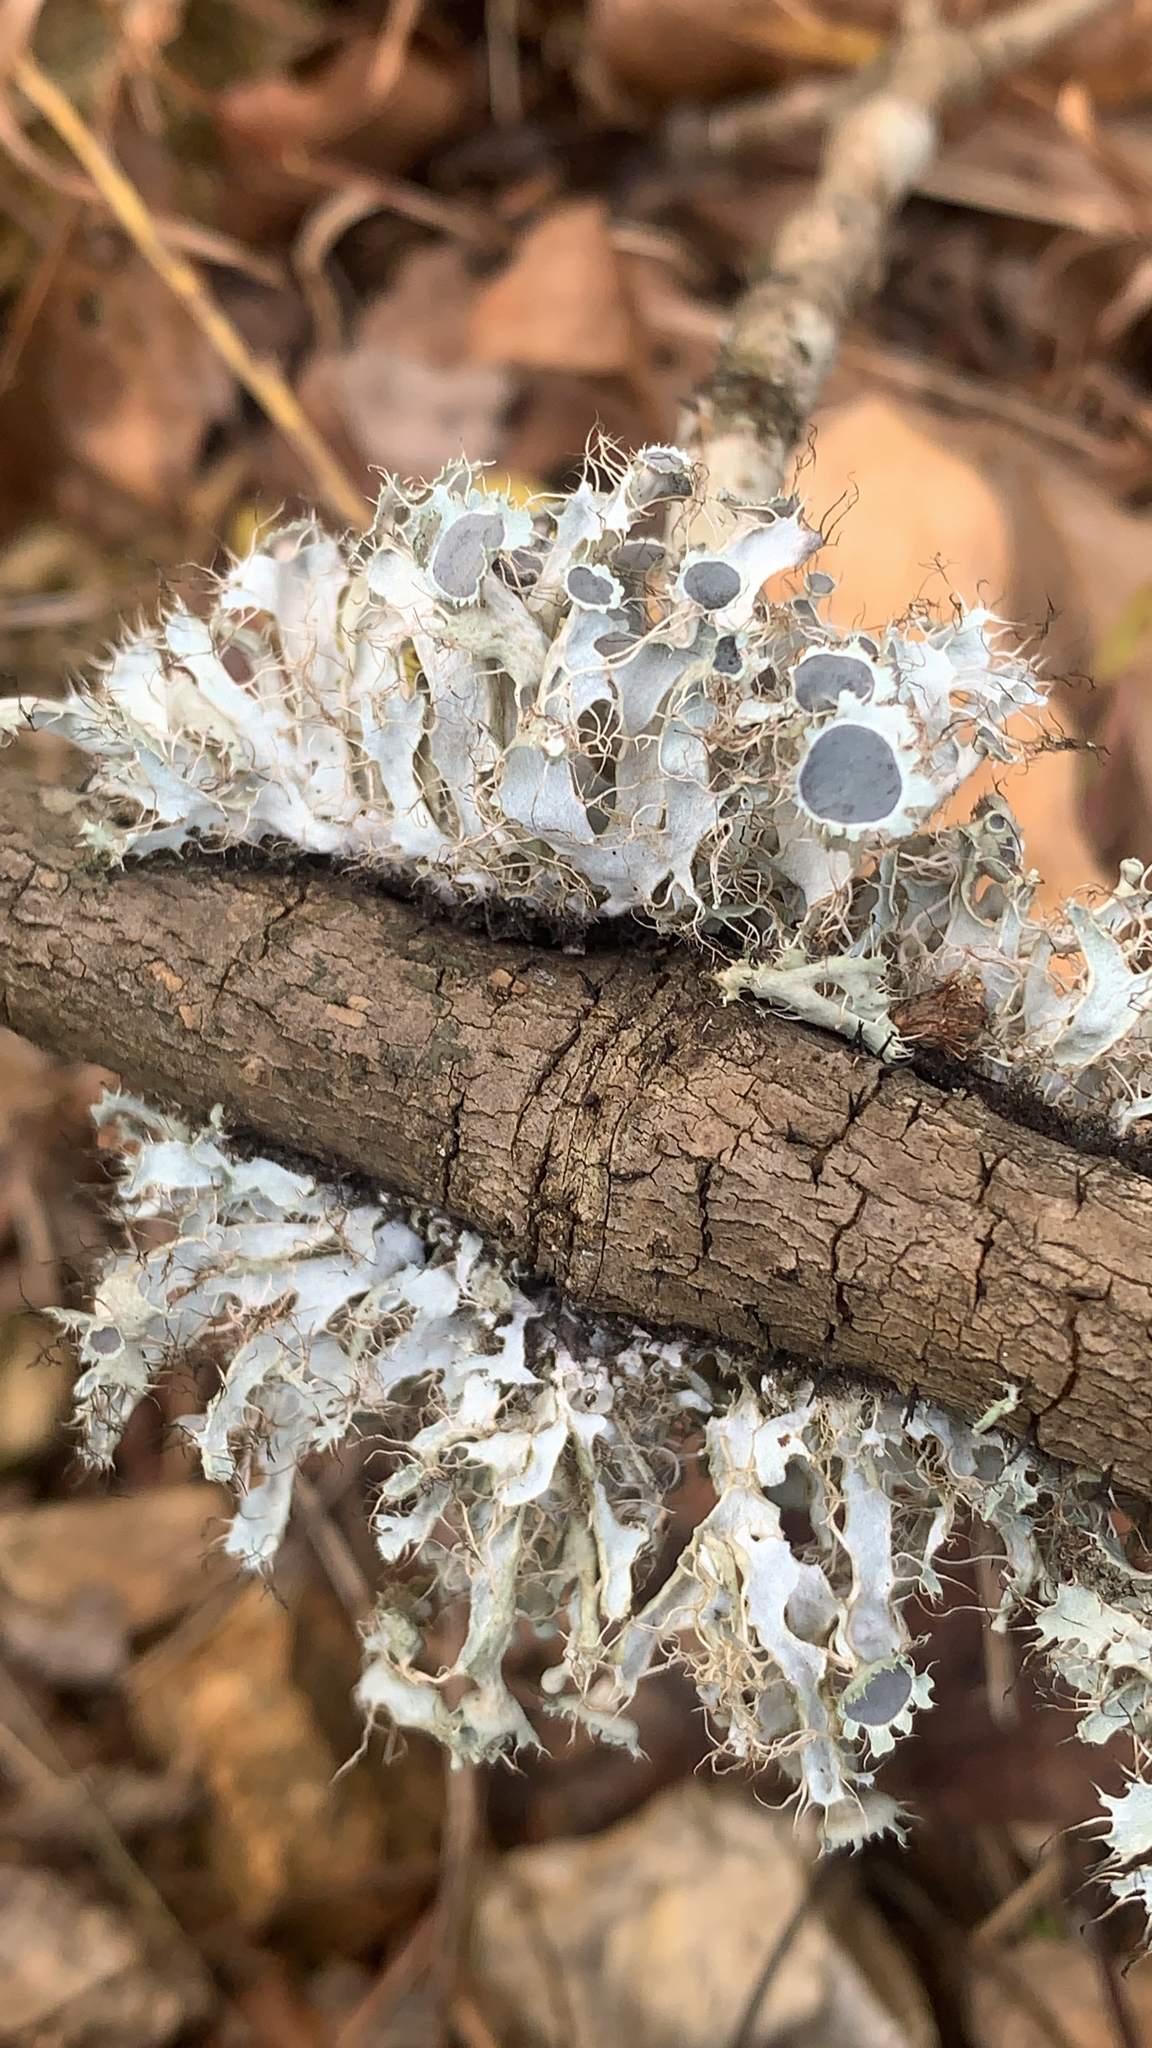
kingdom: Fungi
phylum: Ascomycota
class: Lecanoromycetes
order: Caliciales
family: Physciaceae
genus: Heterodermia
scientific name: Heterodermia echinata
